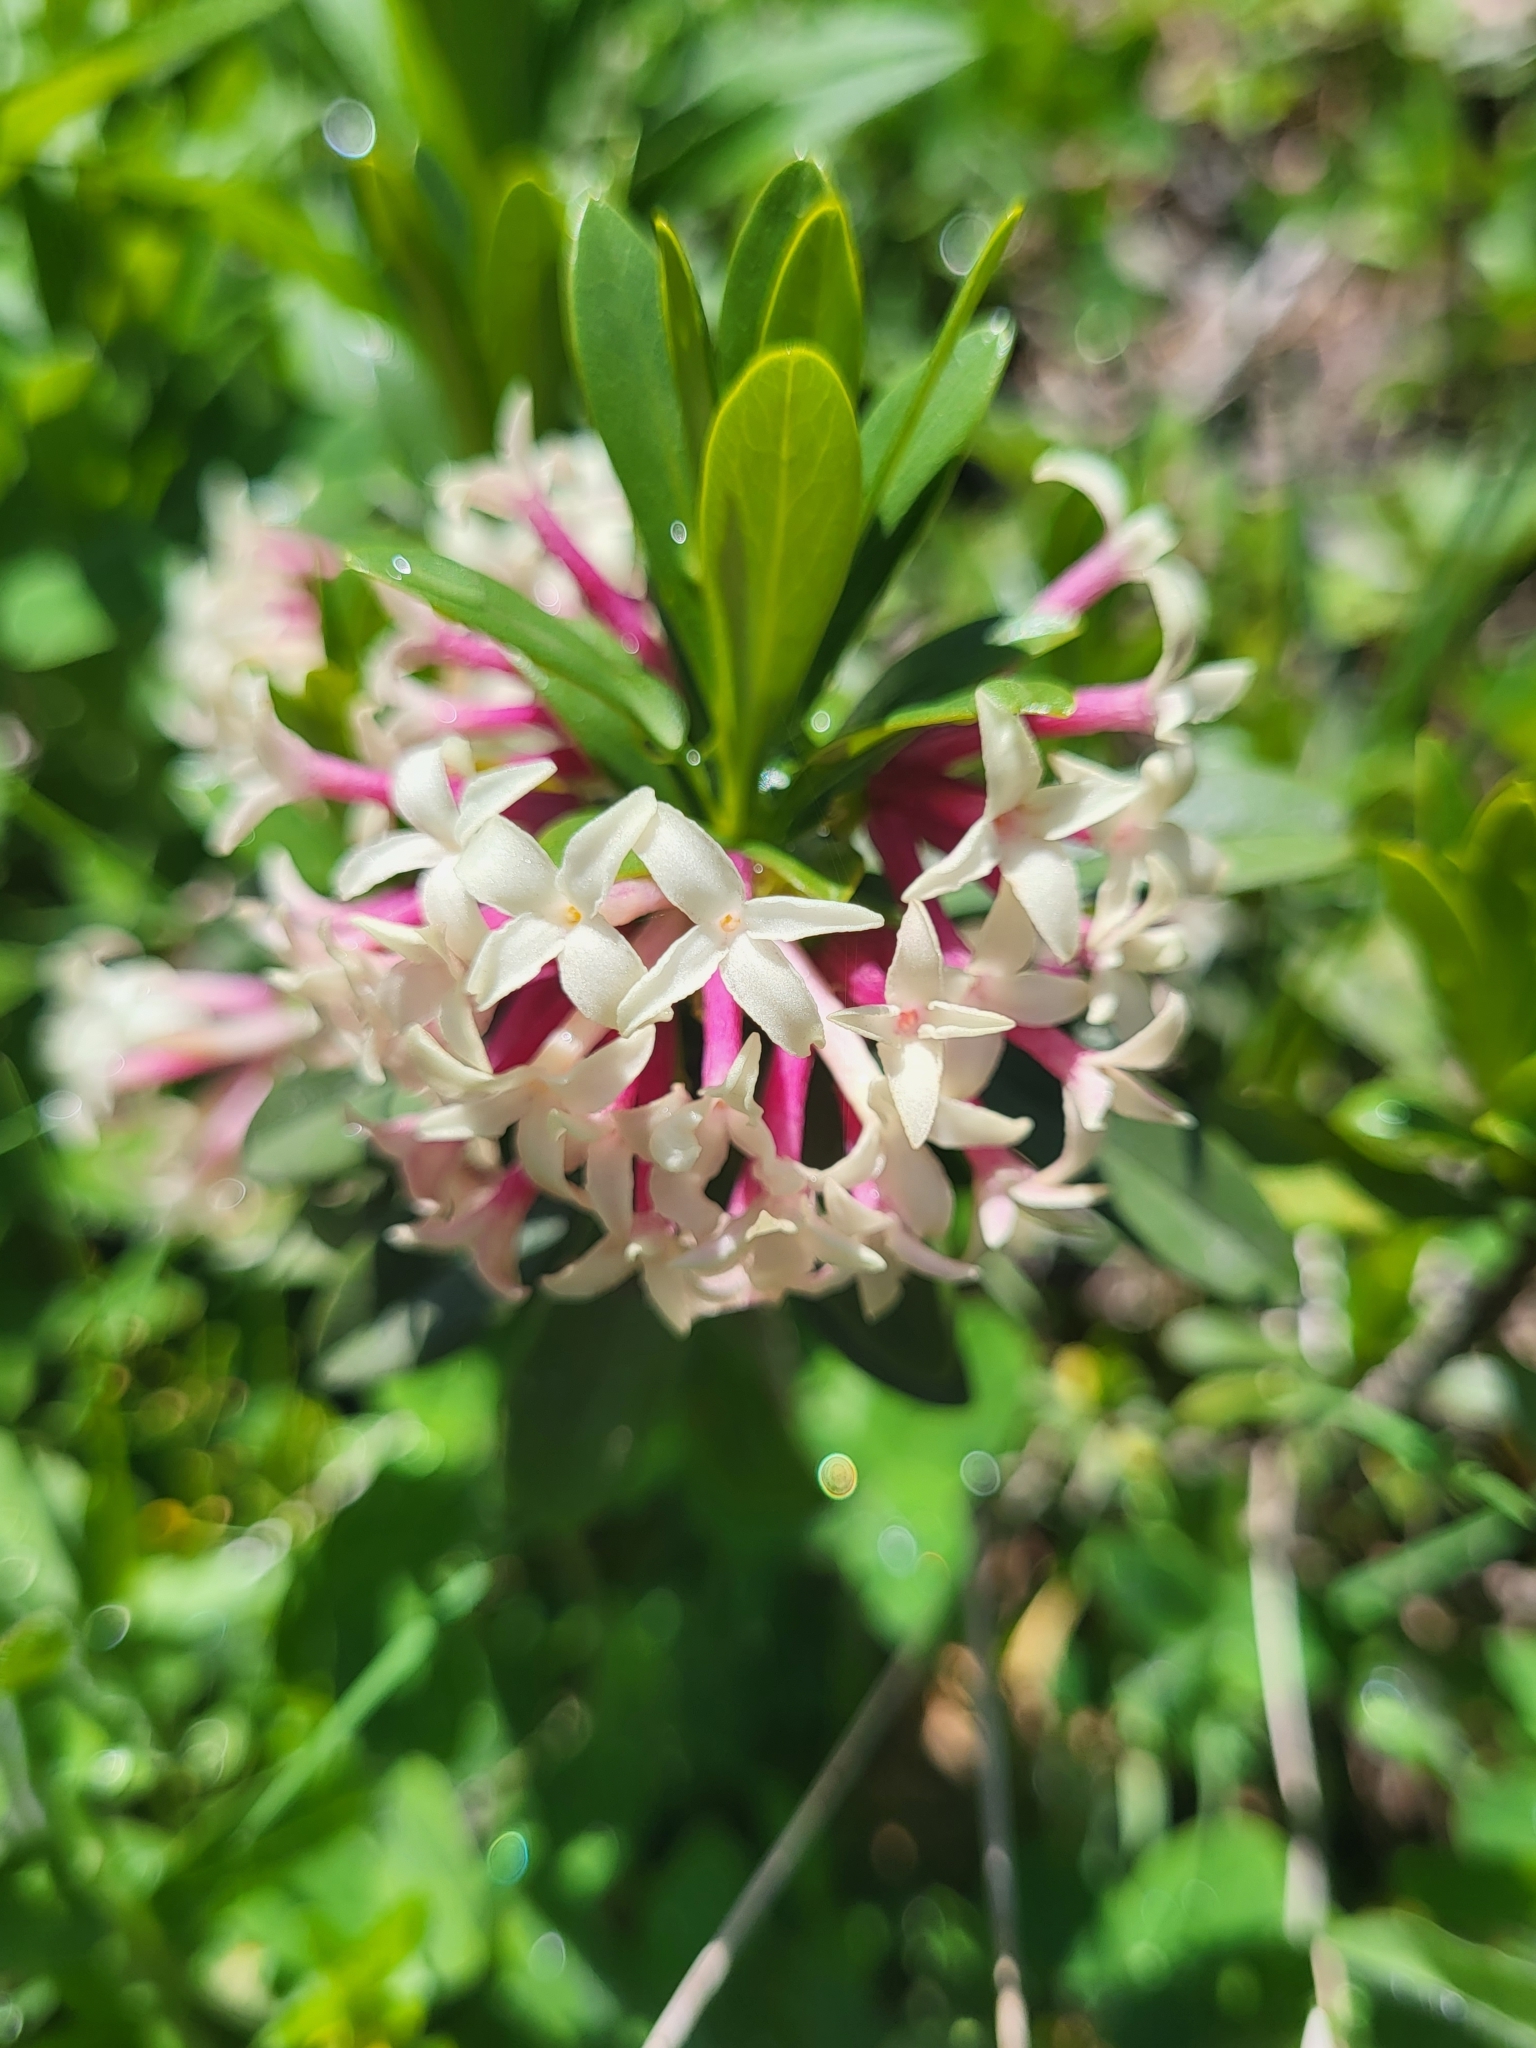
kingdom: Plantae
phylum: Tracheophyta
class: Magnoliopsida
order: Malvales
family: Thymelaeaceae
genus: Daphne
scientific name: Daphne glomerata
